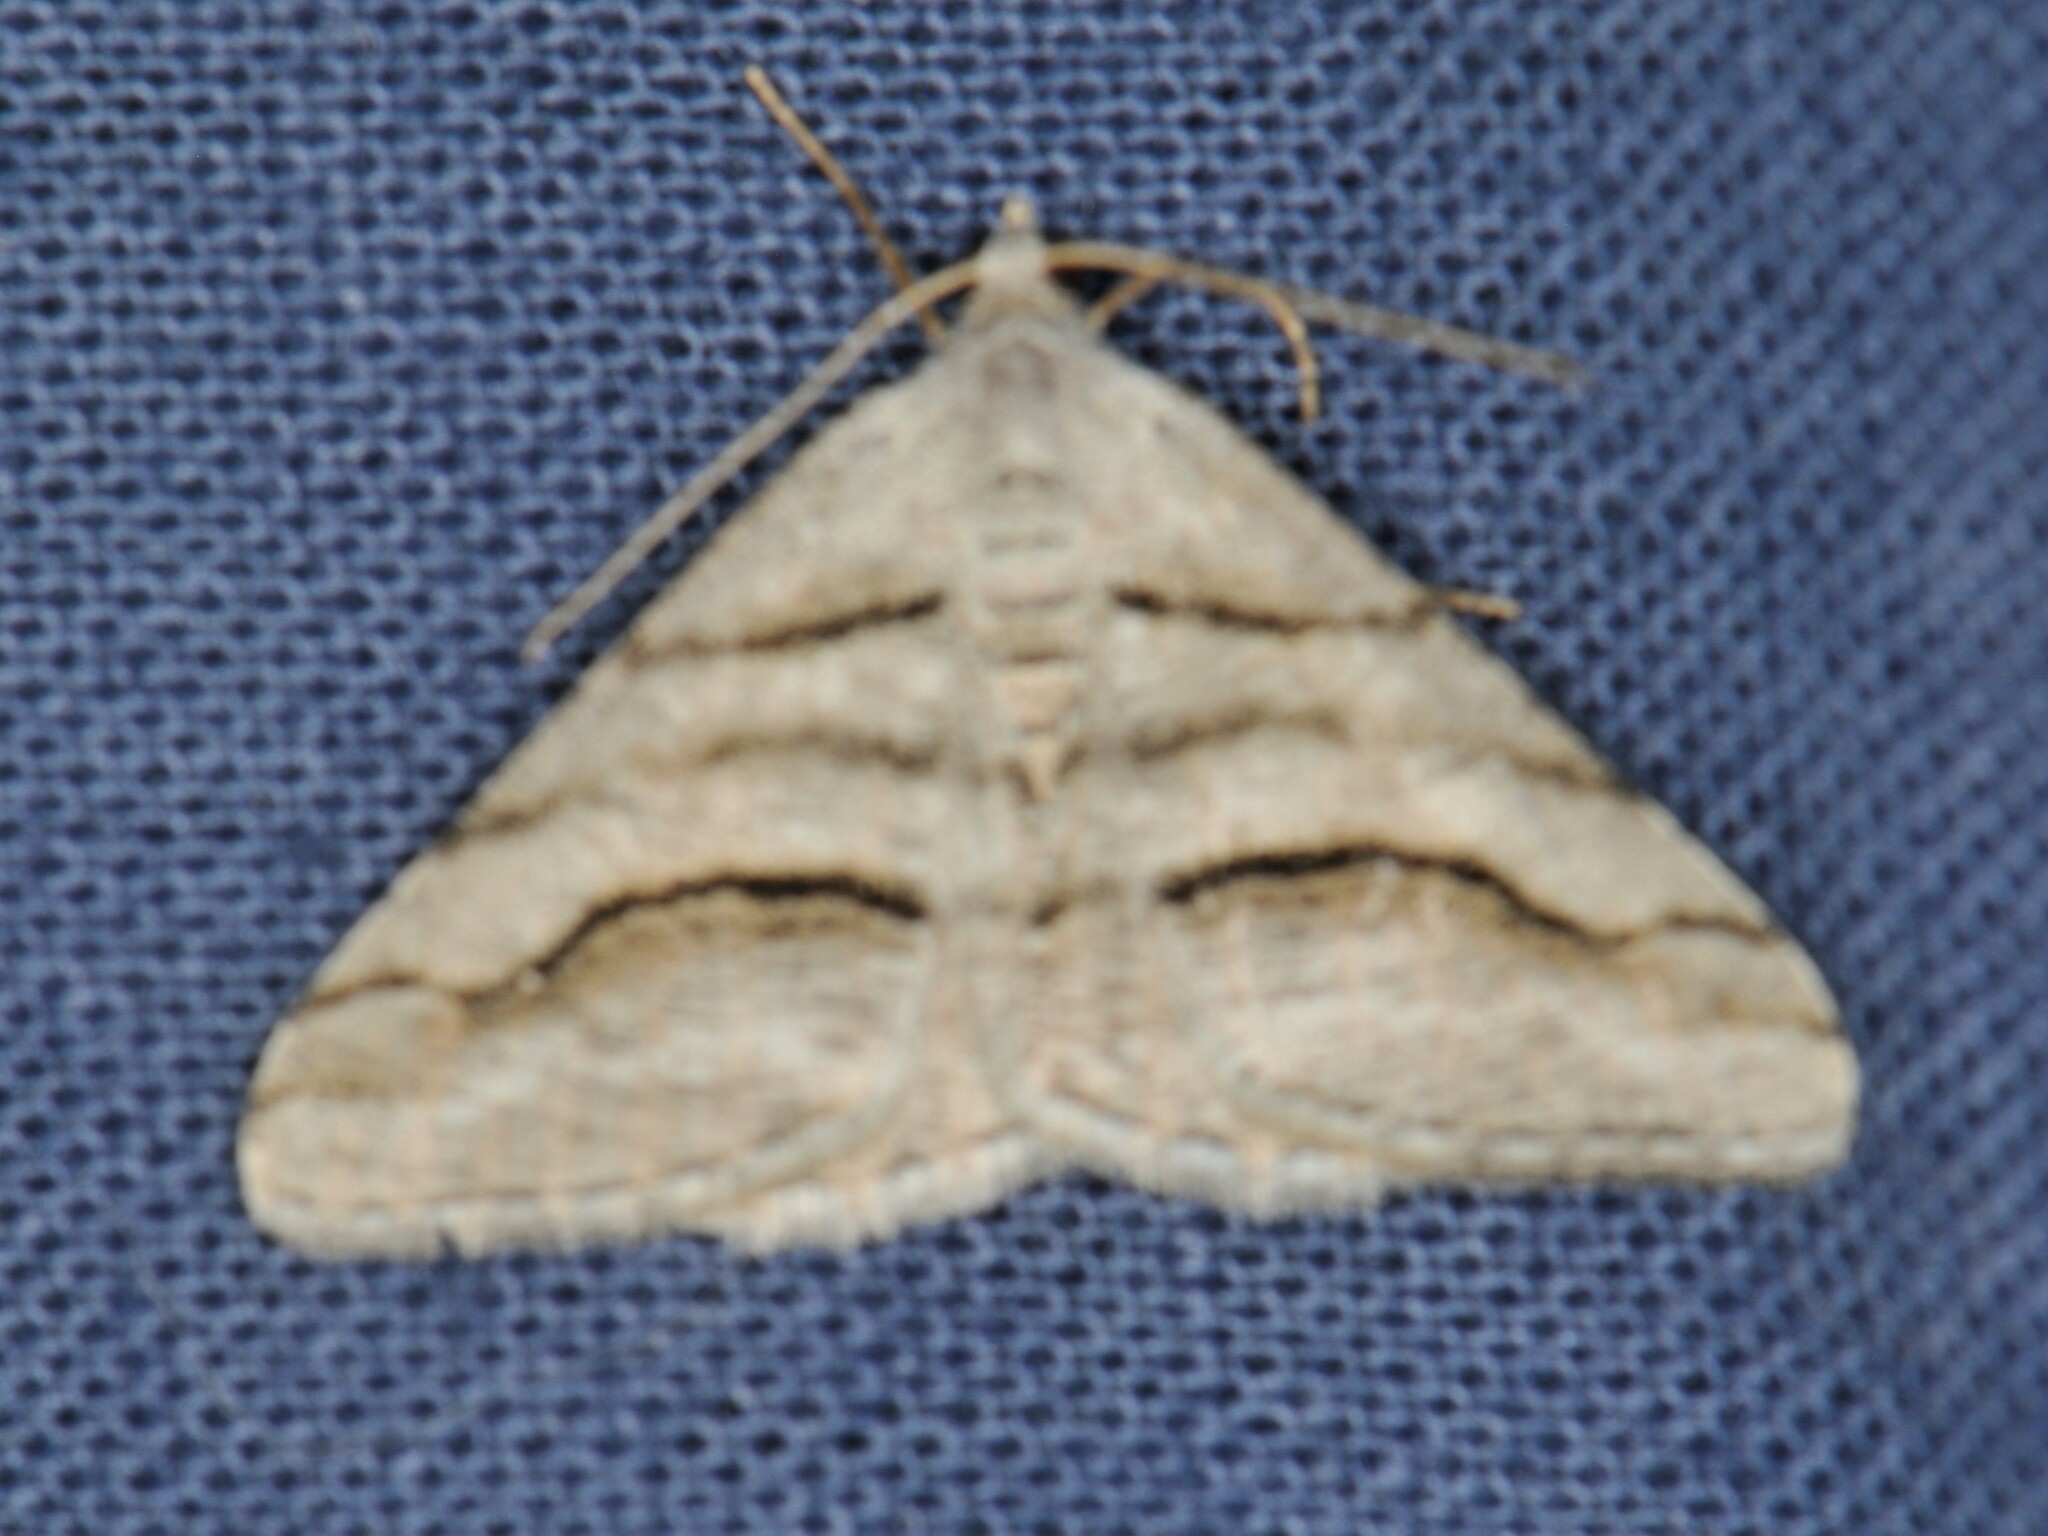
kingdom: Animalia
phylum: Arthropoda
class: Insecta
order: Lepidoptera
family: Geometridae
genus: Digrammia
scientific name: Digrammia continuata
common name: Curve-lined angle
